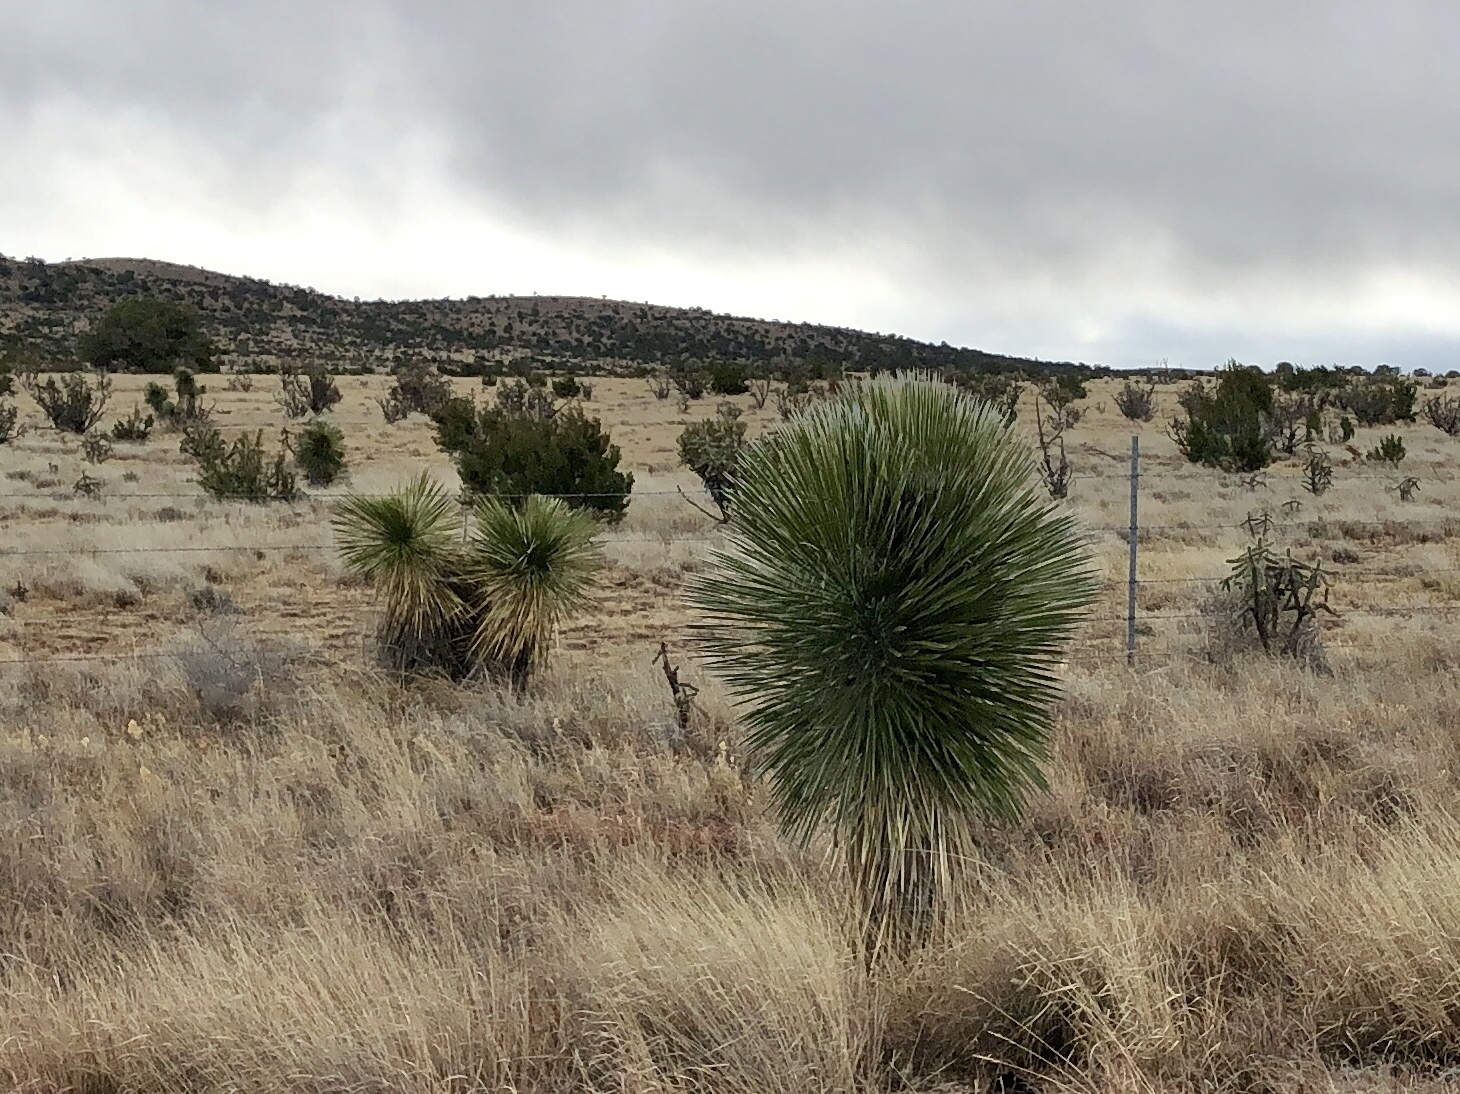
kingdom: Plantae
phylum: Tracheophyta
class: Liliopsida
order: Asparagales
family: Asparagaceae
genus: Yucca
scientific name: Yucca elata
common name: Palmella
